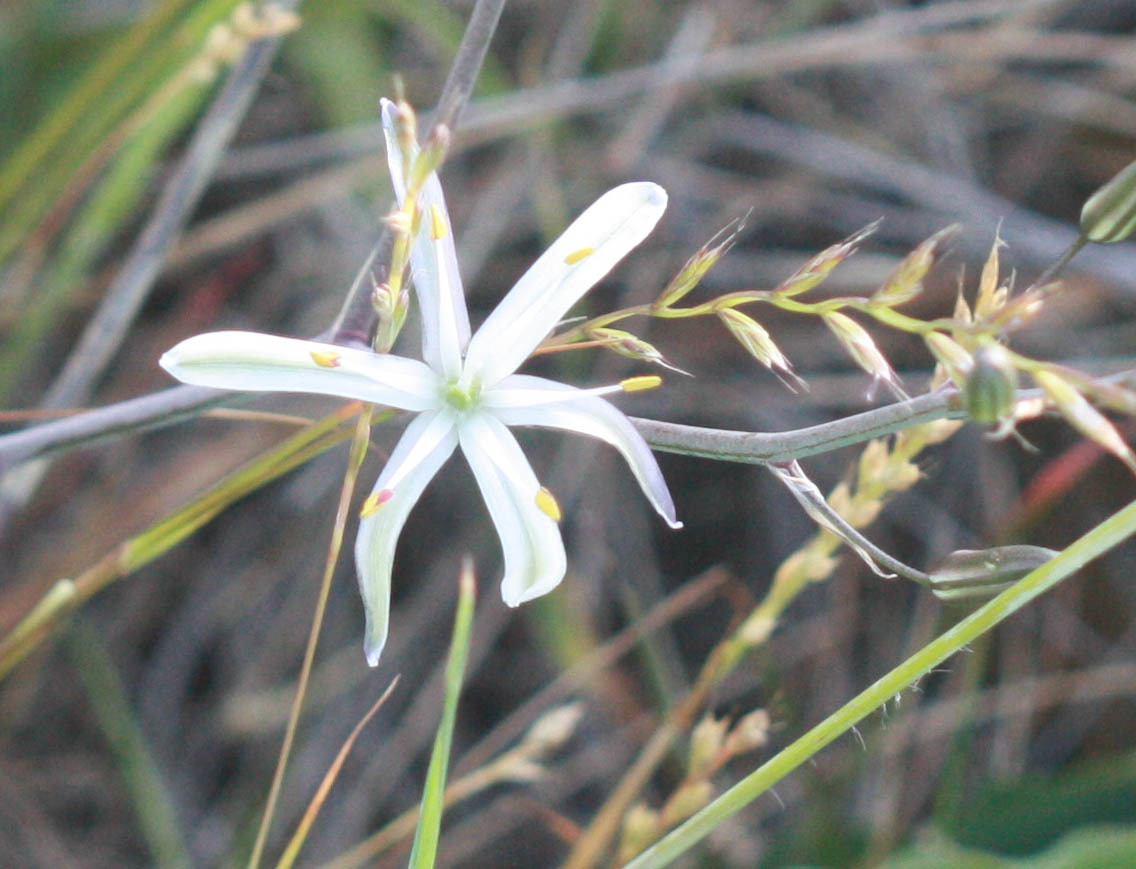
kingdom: Plantae
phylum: Tracheophyta
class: Liliopsida
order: Asparagales
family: Asparagaceae
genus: Chlorogalum
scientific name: Chlorogalum pomeridianum
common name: Amole
